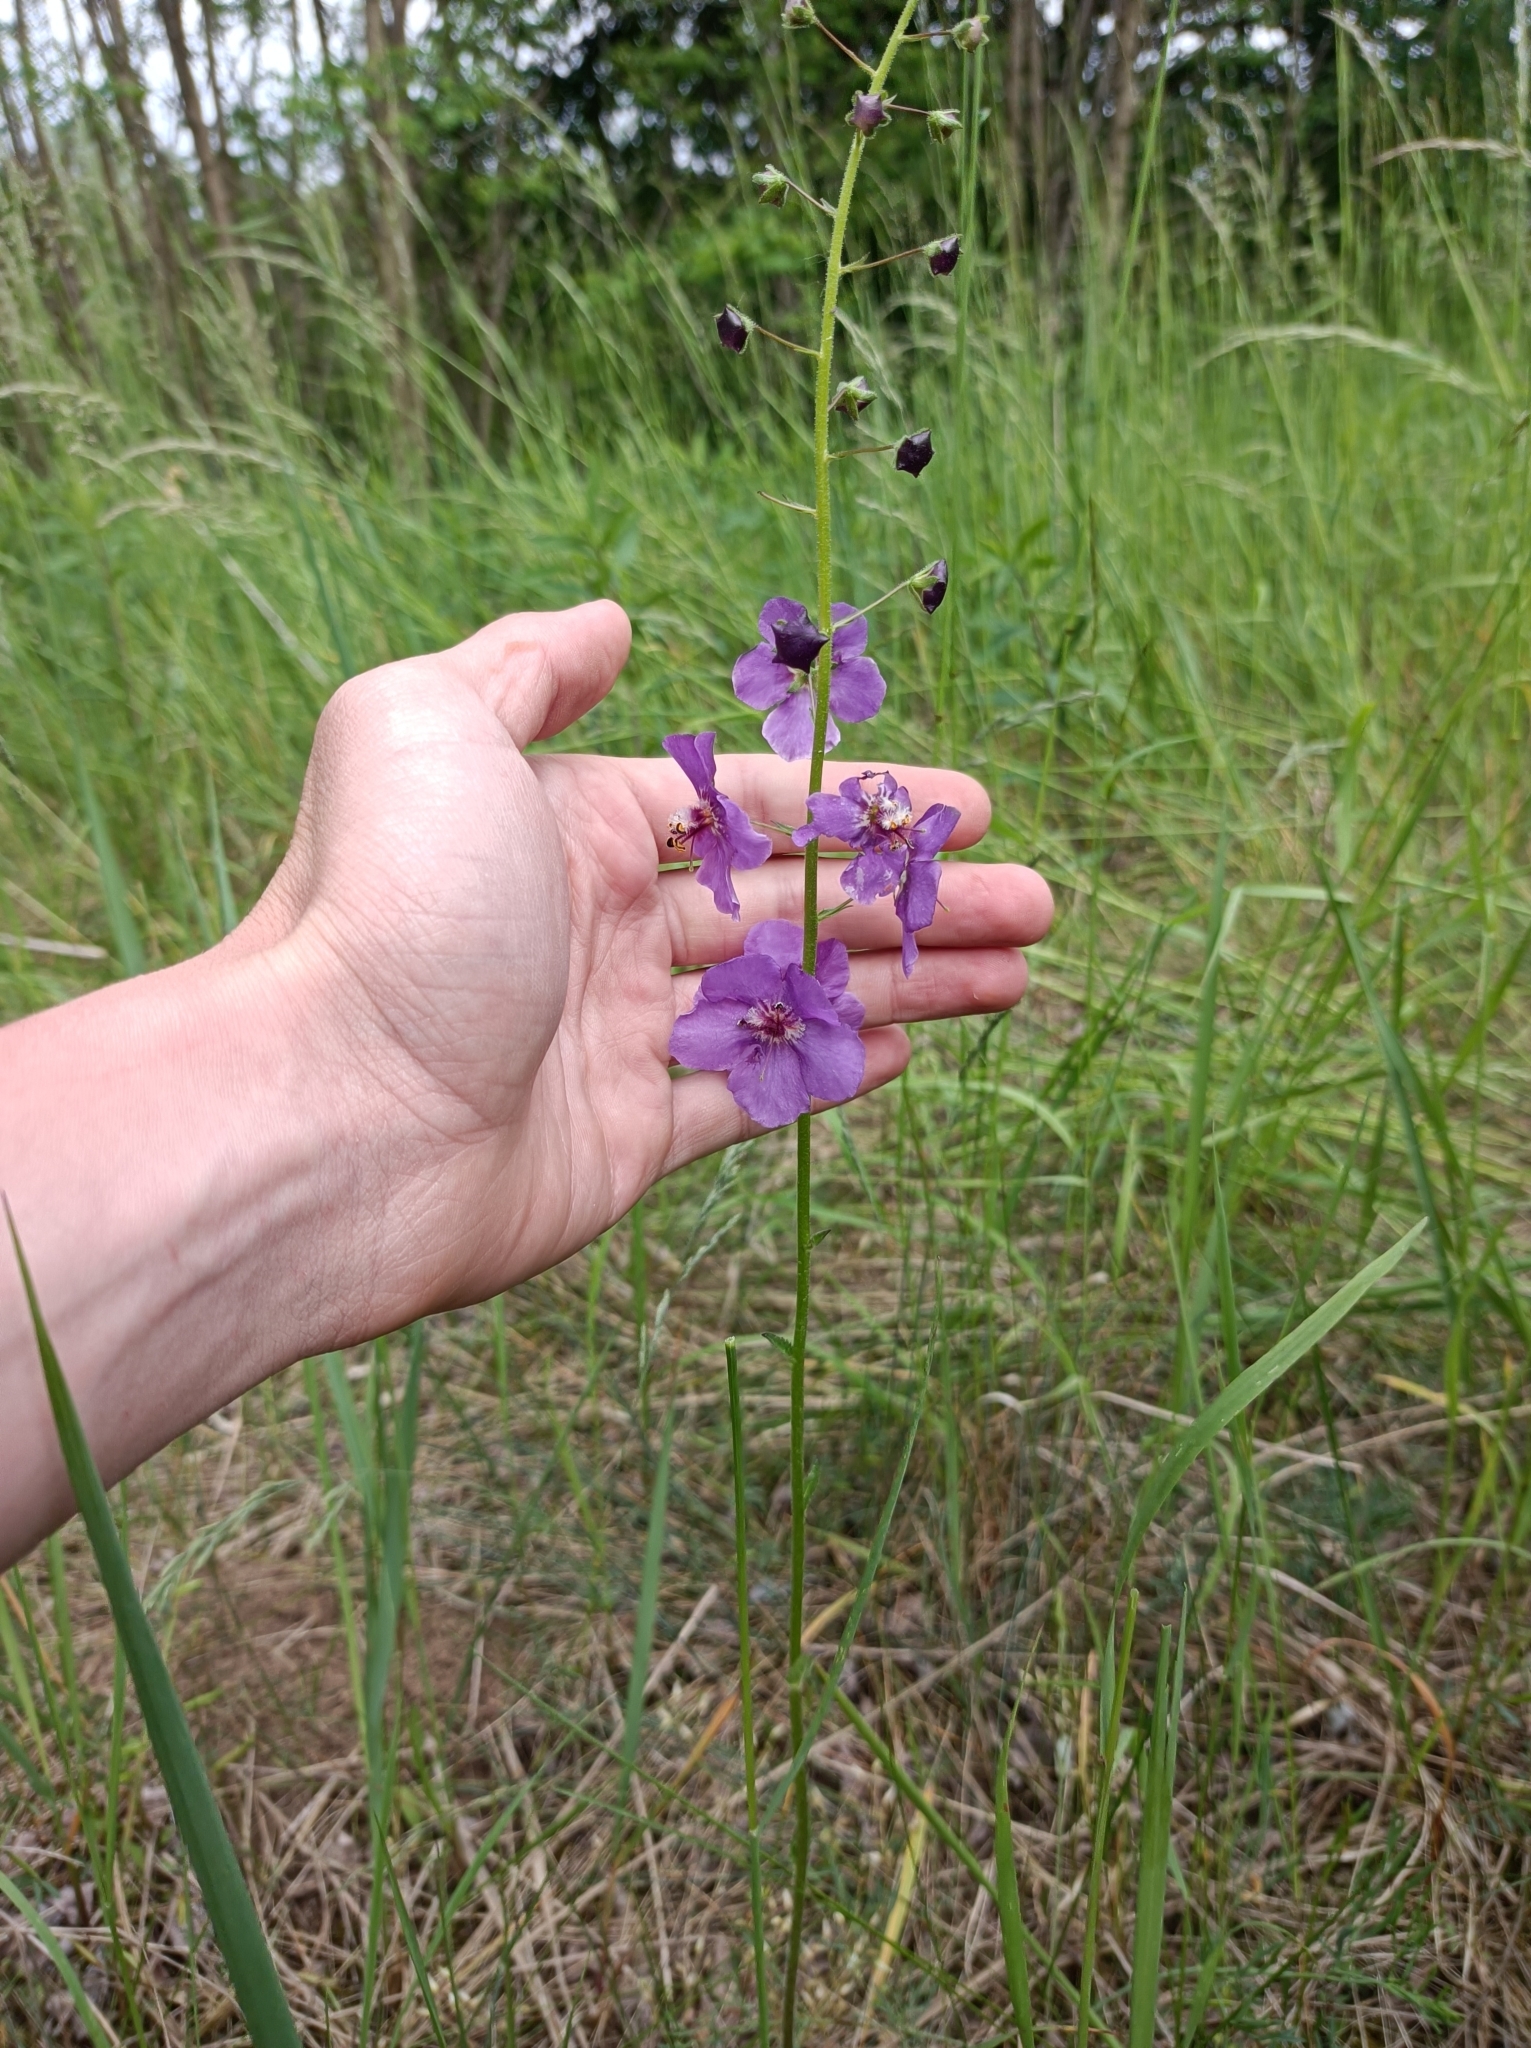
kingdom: Plantae
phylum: Tracheophyta
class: Magnoliopsida
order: Lamiales
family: Scrophulariaceae
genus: Verbascum
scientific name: Verbascum phoeniceum
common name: Purple mullein
